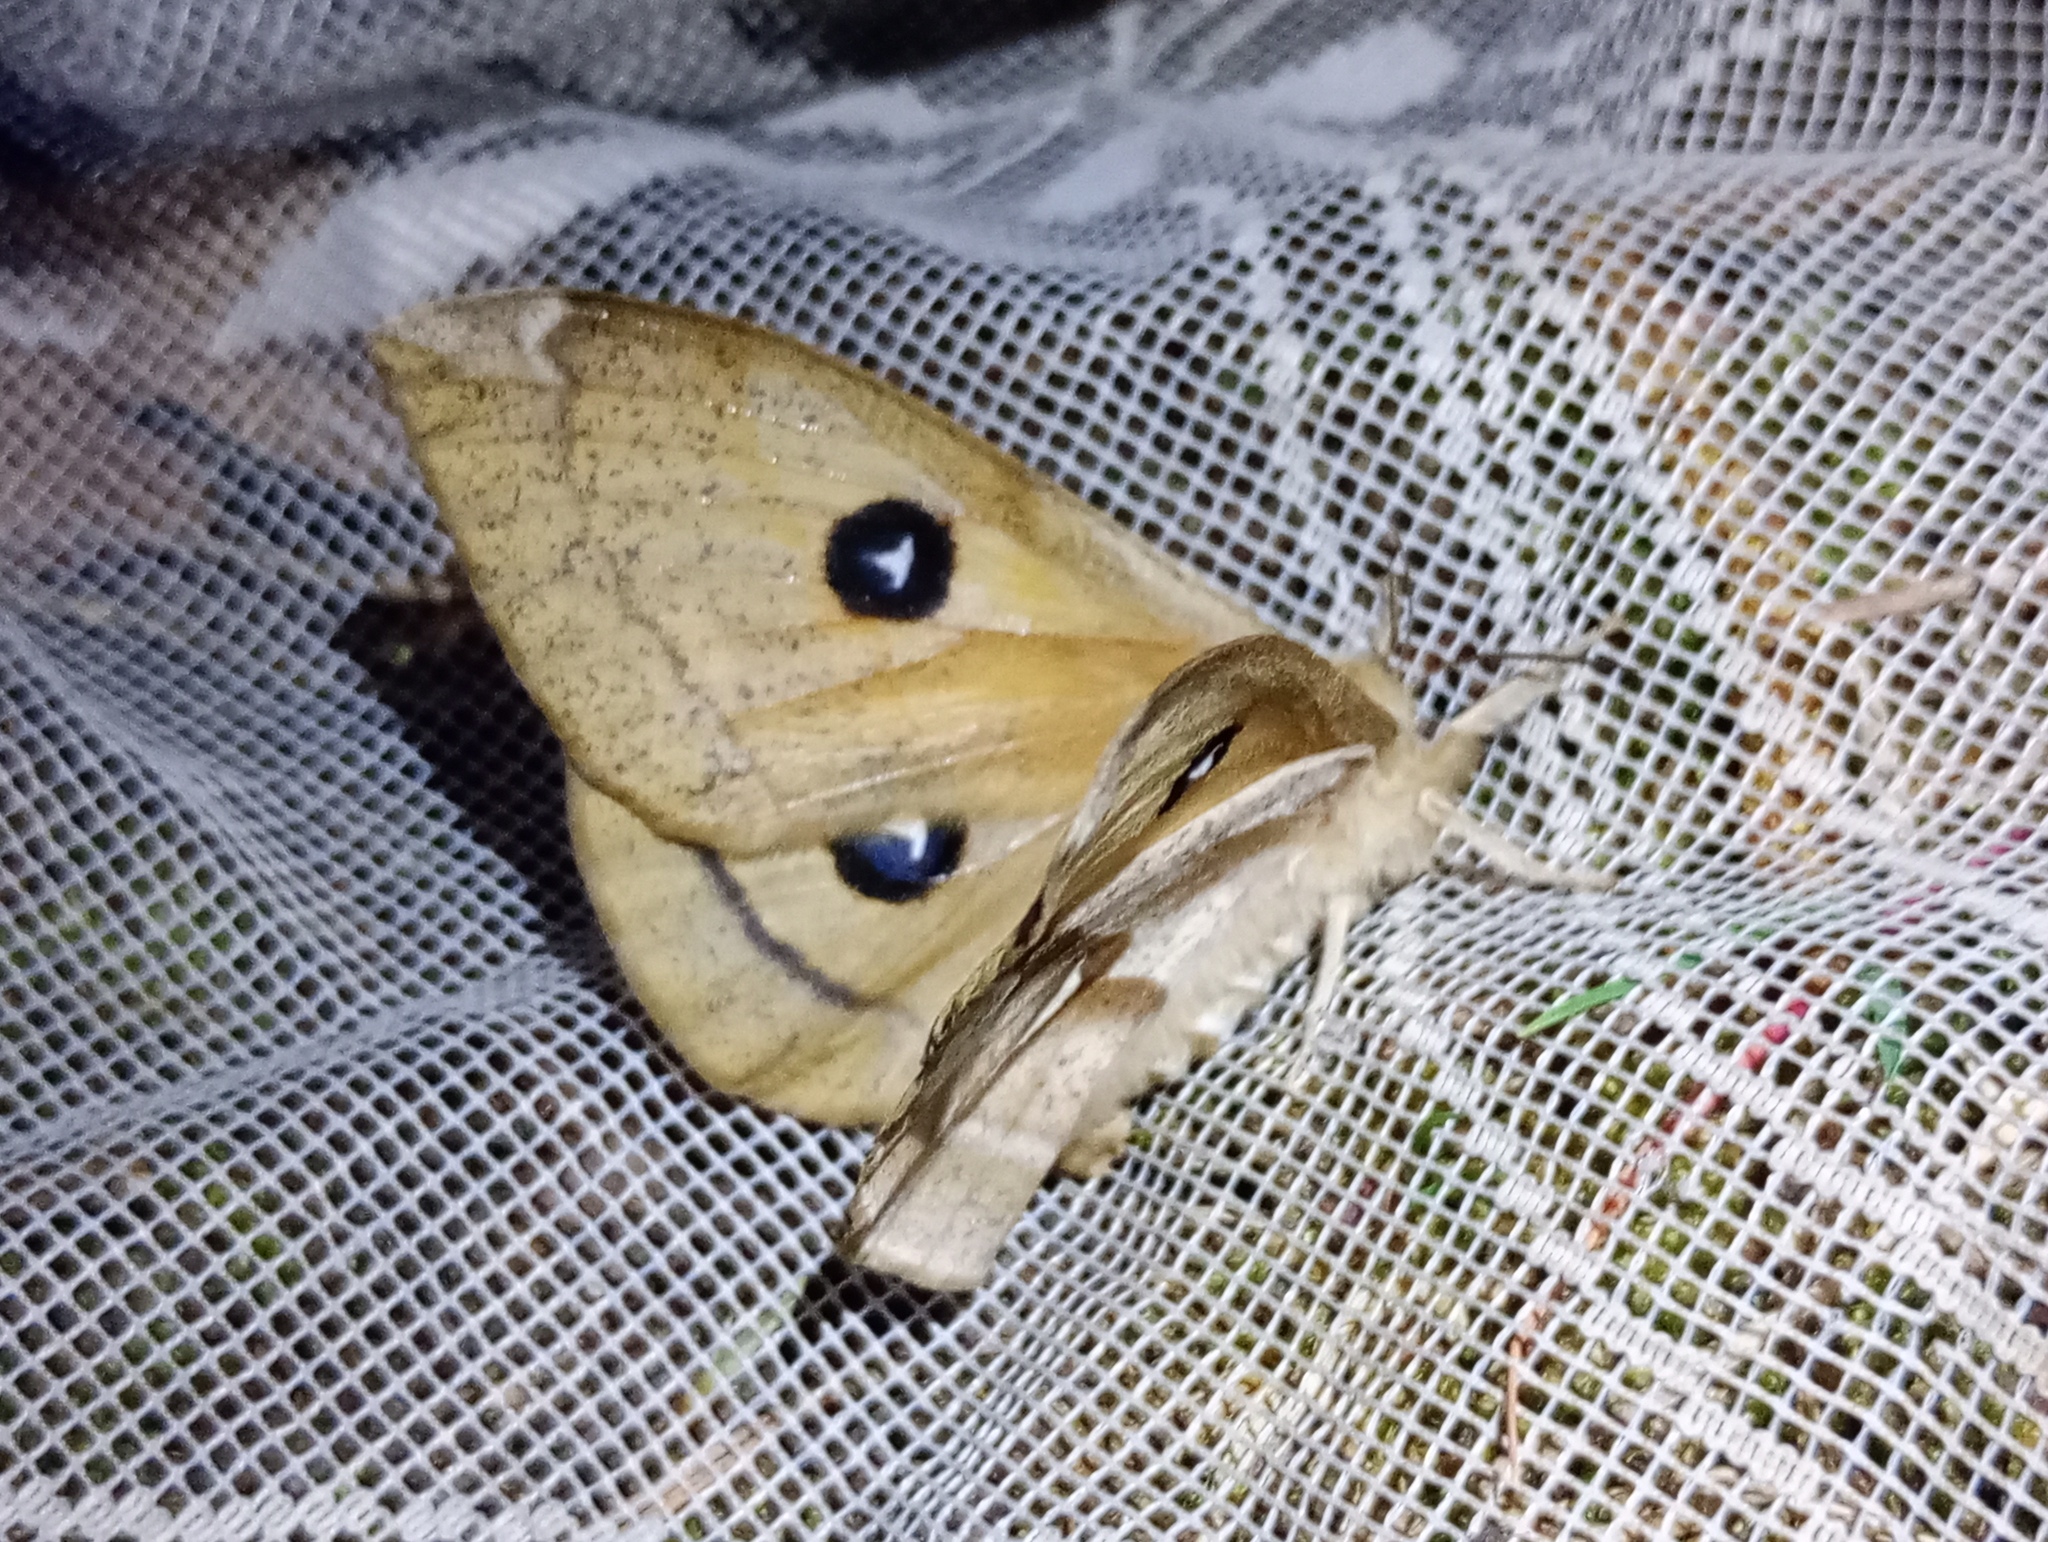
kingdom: Animalia
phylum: Arthropoda
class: Insecta
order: Lepidoptera
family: Saturniidae
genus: Aglia
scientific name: Aglia tau
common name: Tau emperor
